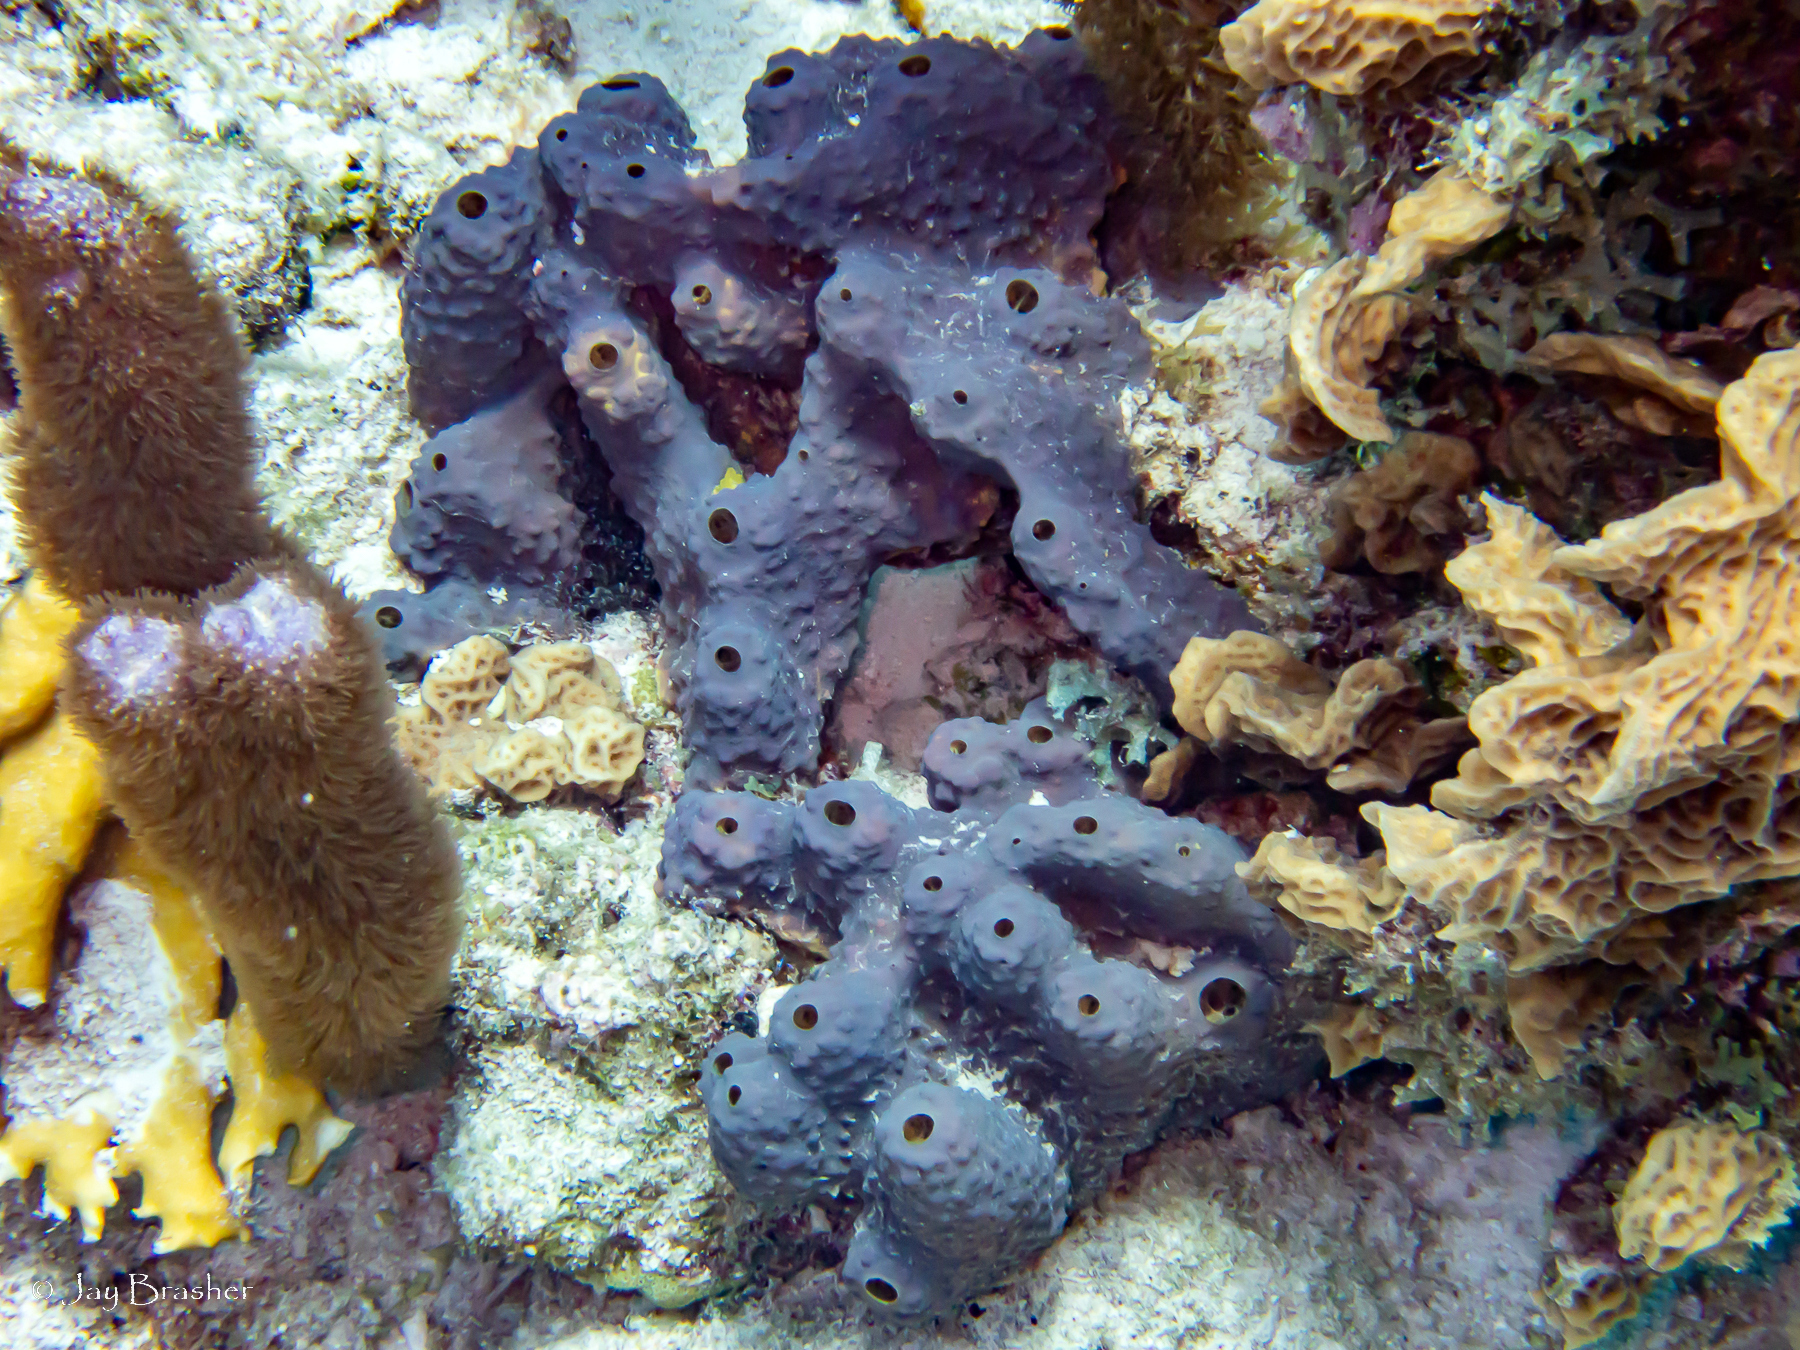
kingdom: Animalia
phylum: Porifera
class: Demospongiae
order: Verongiida
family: Aplysinidae
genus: Aiolochroia
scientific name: Aiolochroia crassa
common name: Branching tube sponge
